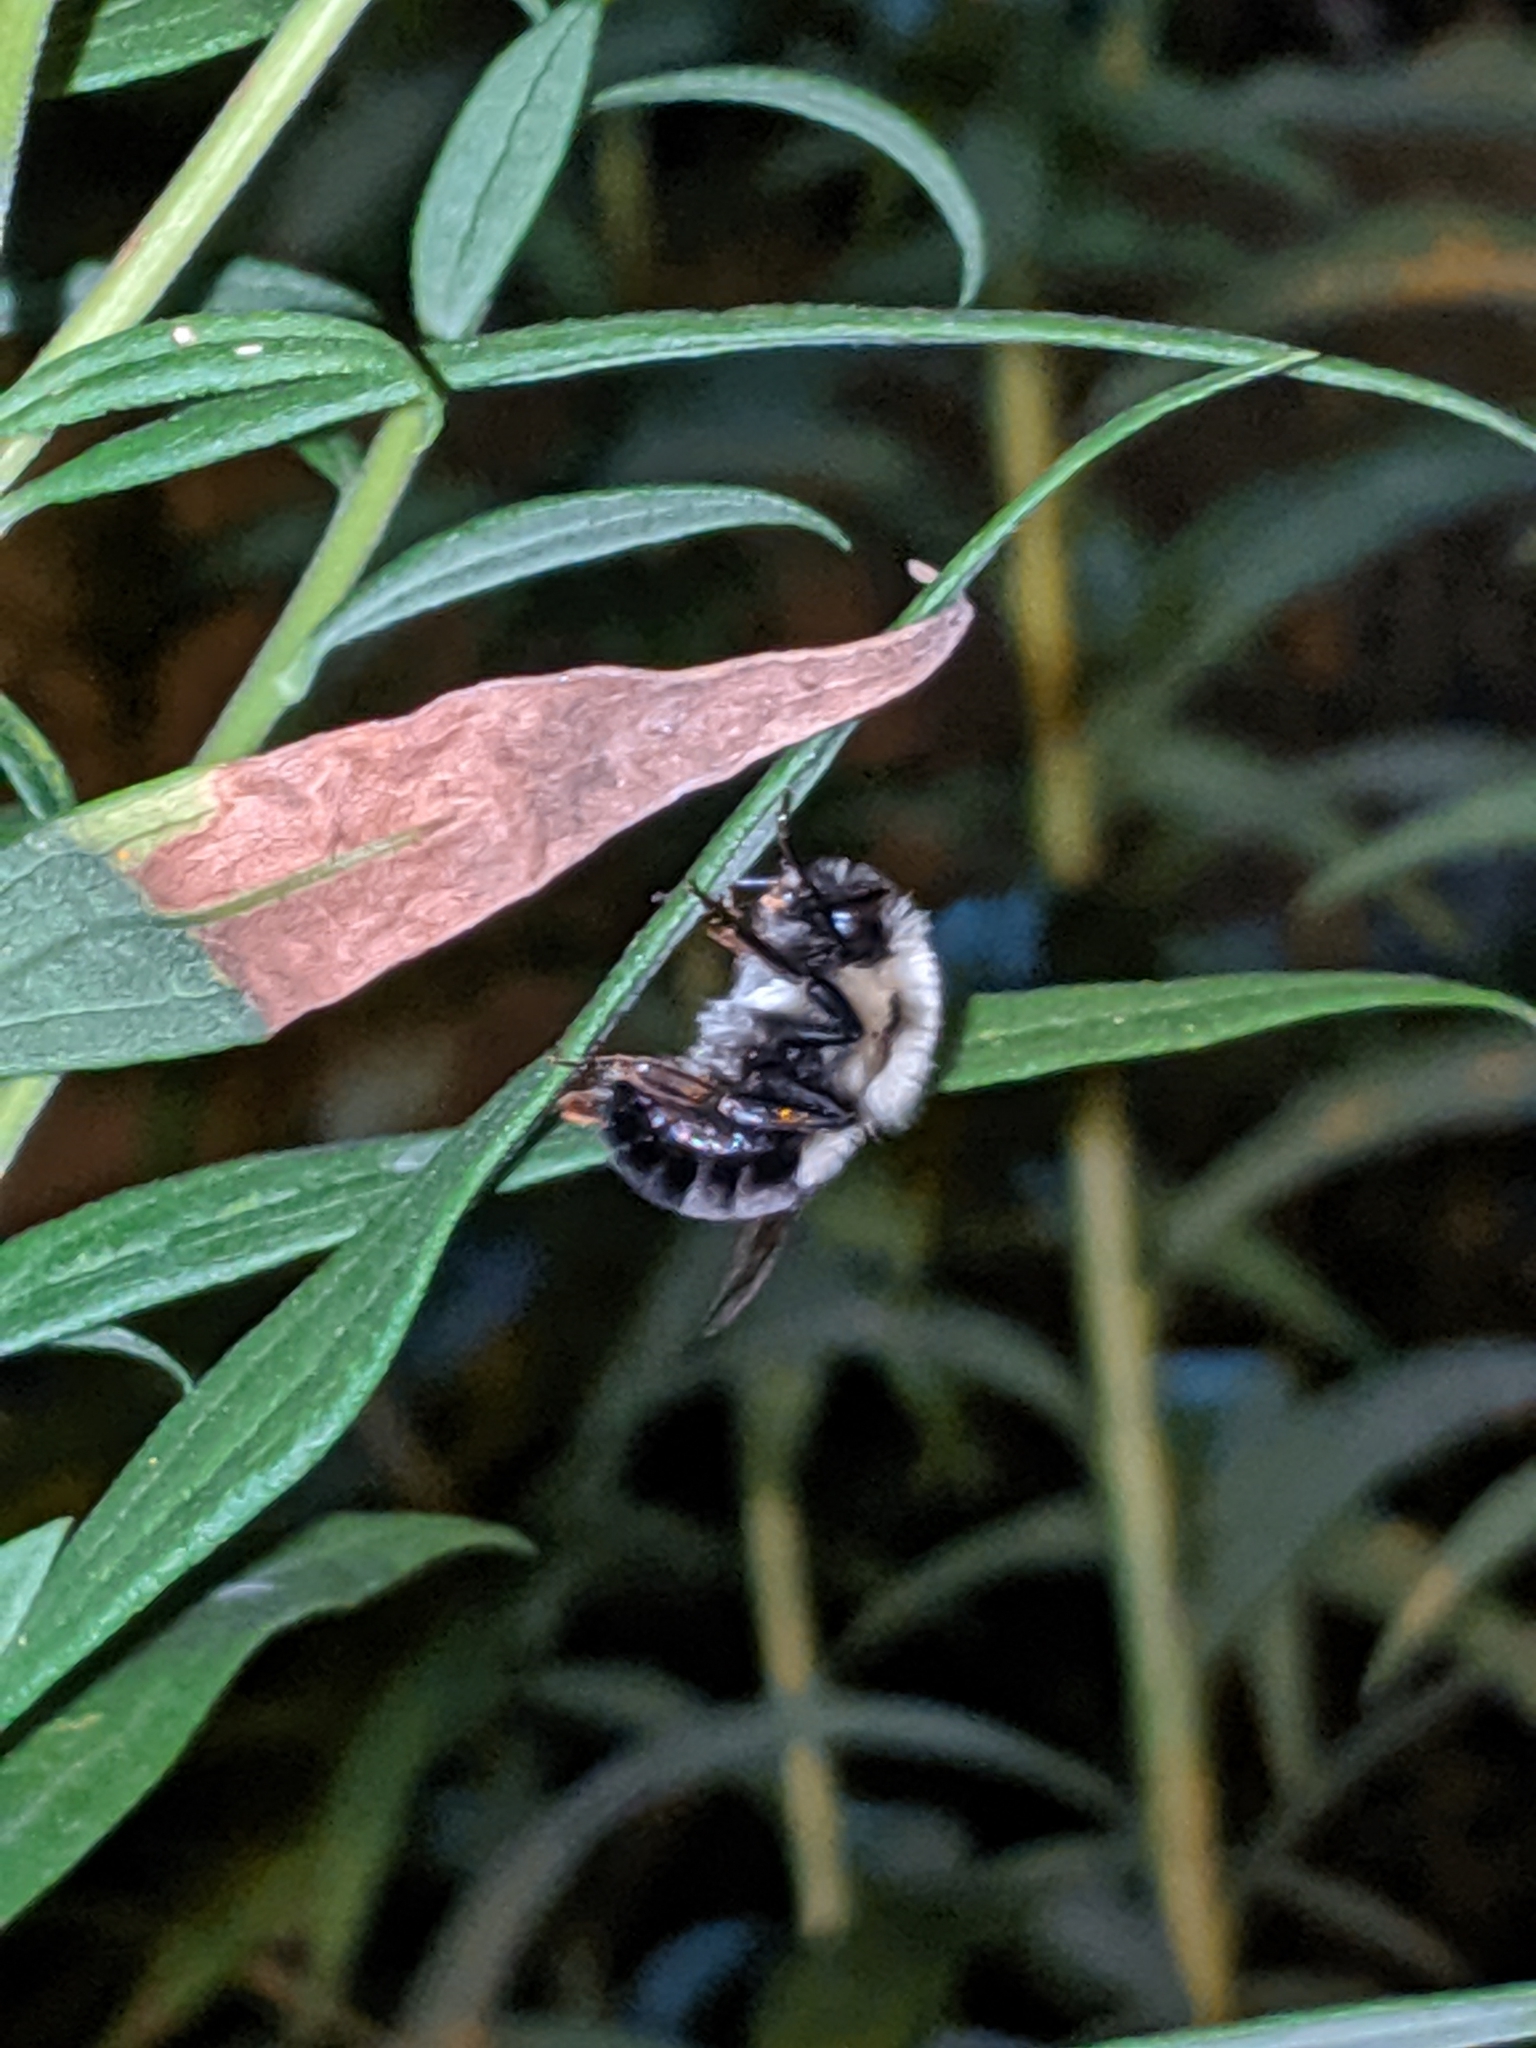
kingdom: Animalia
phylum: Arthropoda
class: Insecta
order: Hymenoptera
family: Apidae
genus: Bombus
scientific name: Bombus impatiens
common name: Common eastern bumble bee
